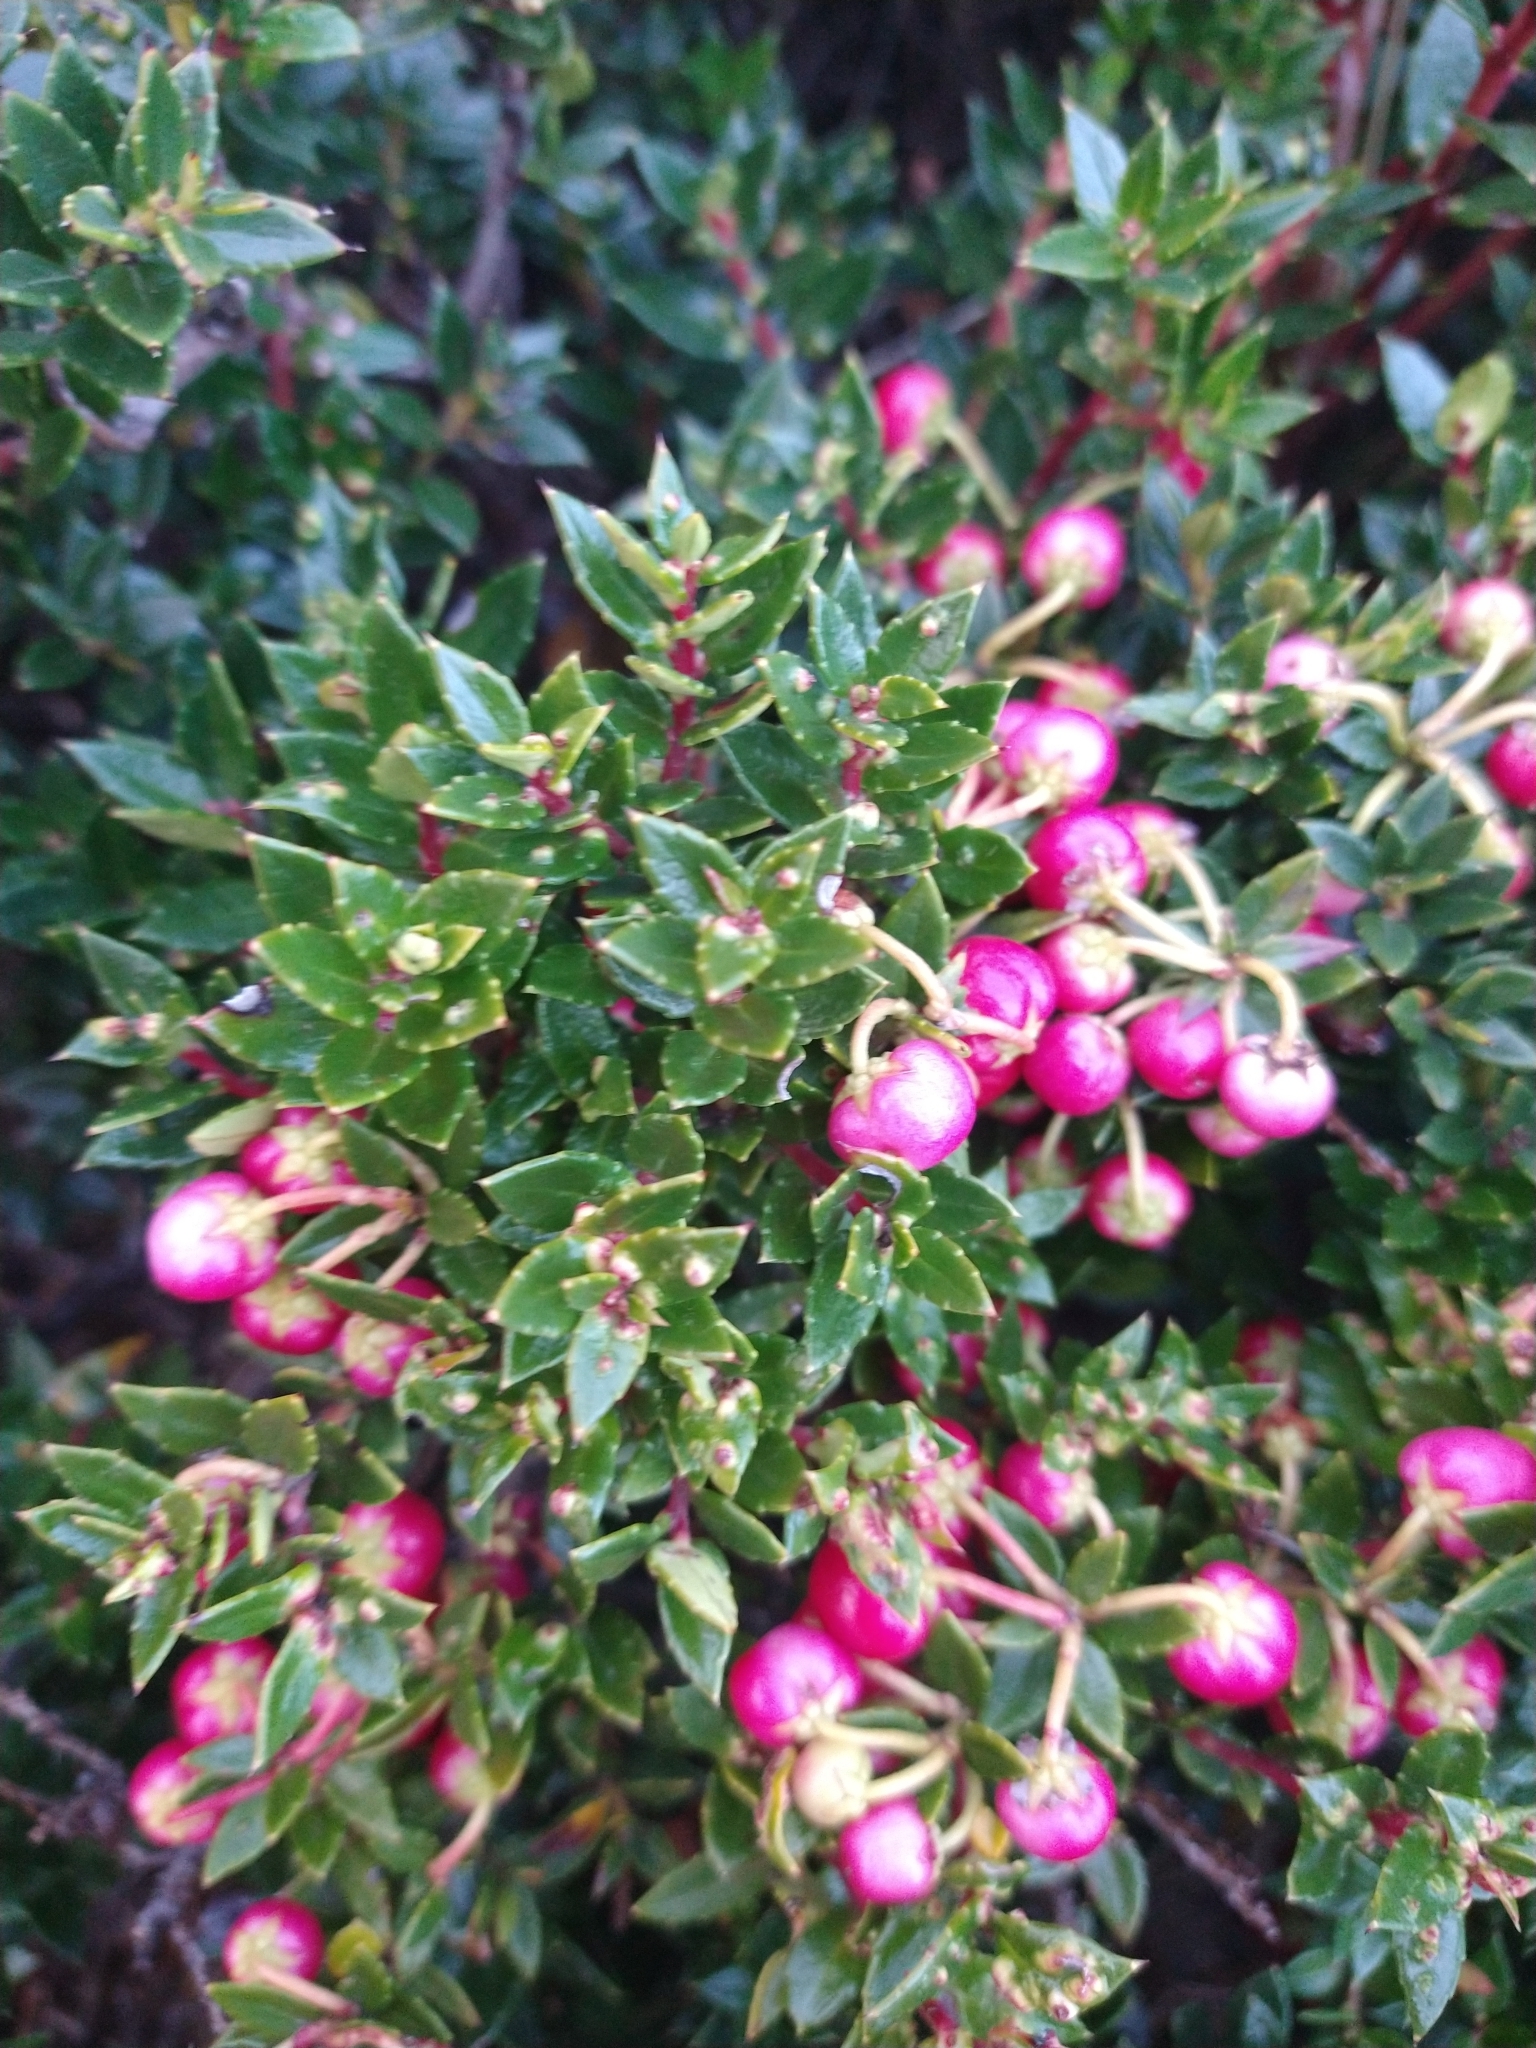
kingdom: Plantae
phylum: Tracheophyta
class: Magnoliopsida
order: Ericales
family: Ericaceae
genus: Gaultheria
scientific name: Gaultheria mucronata
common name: Prickly heath
